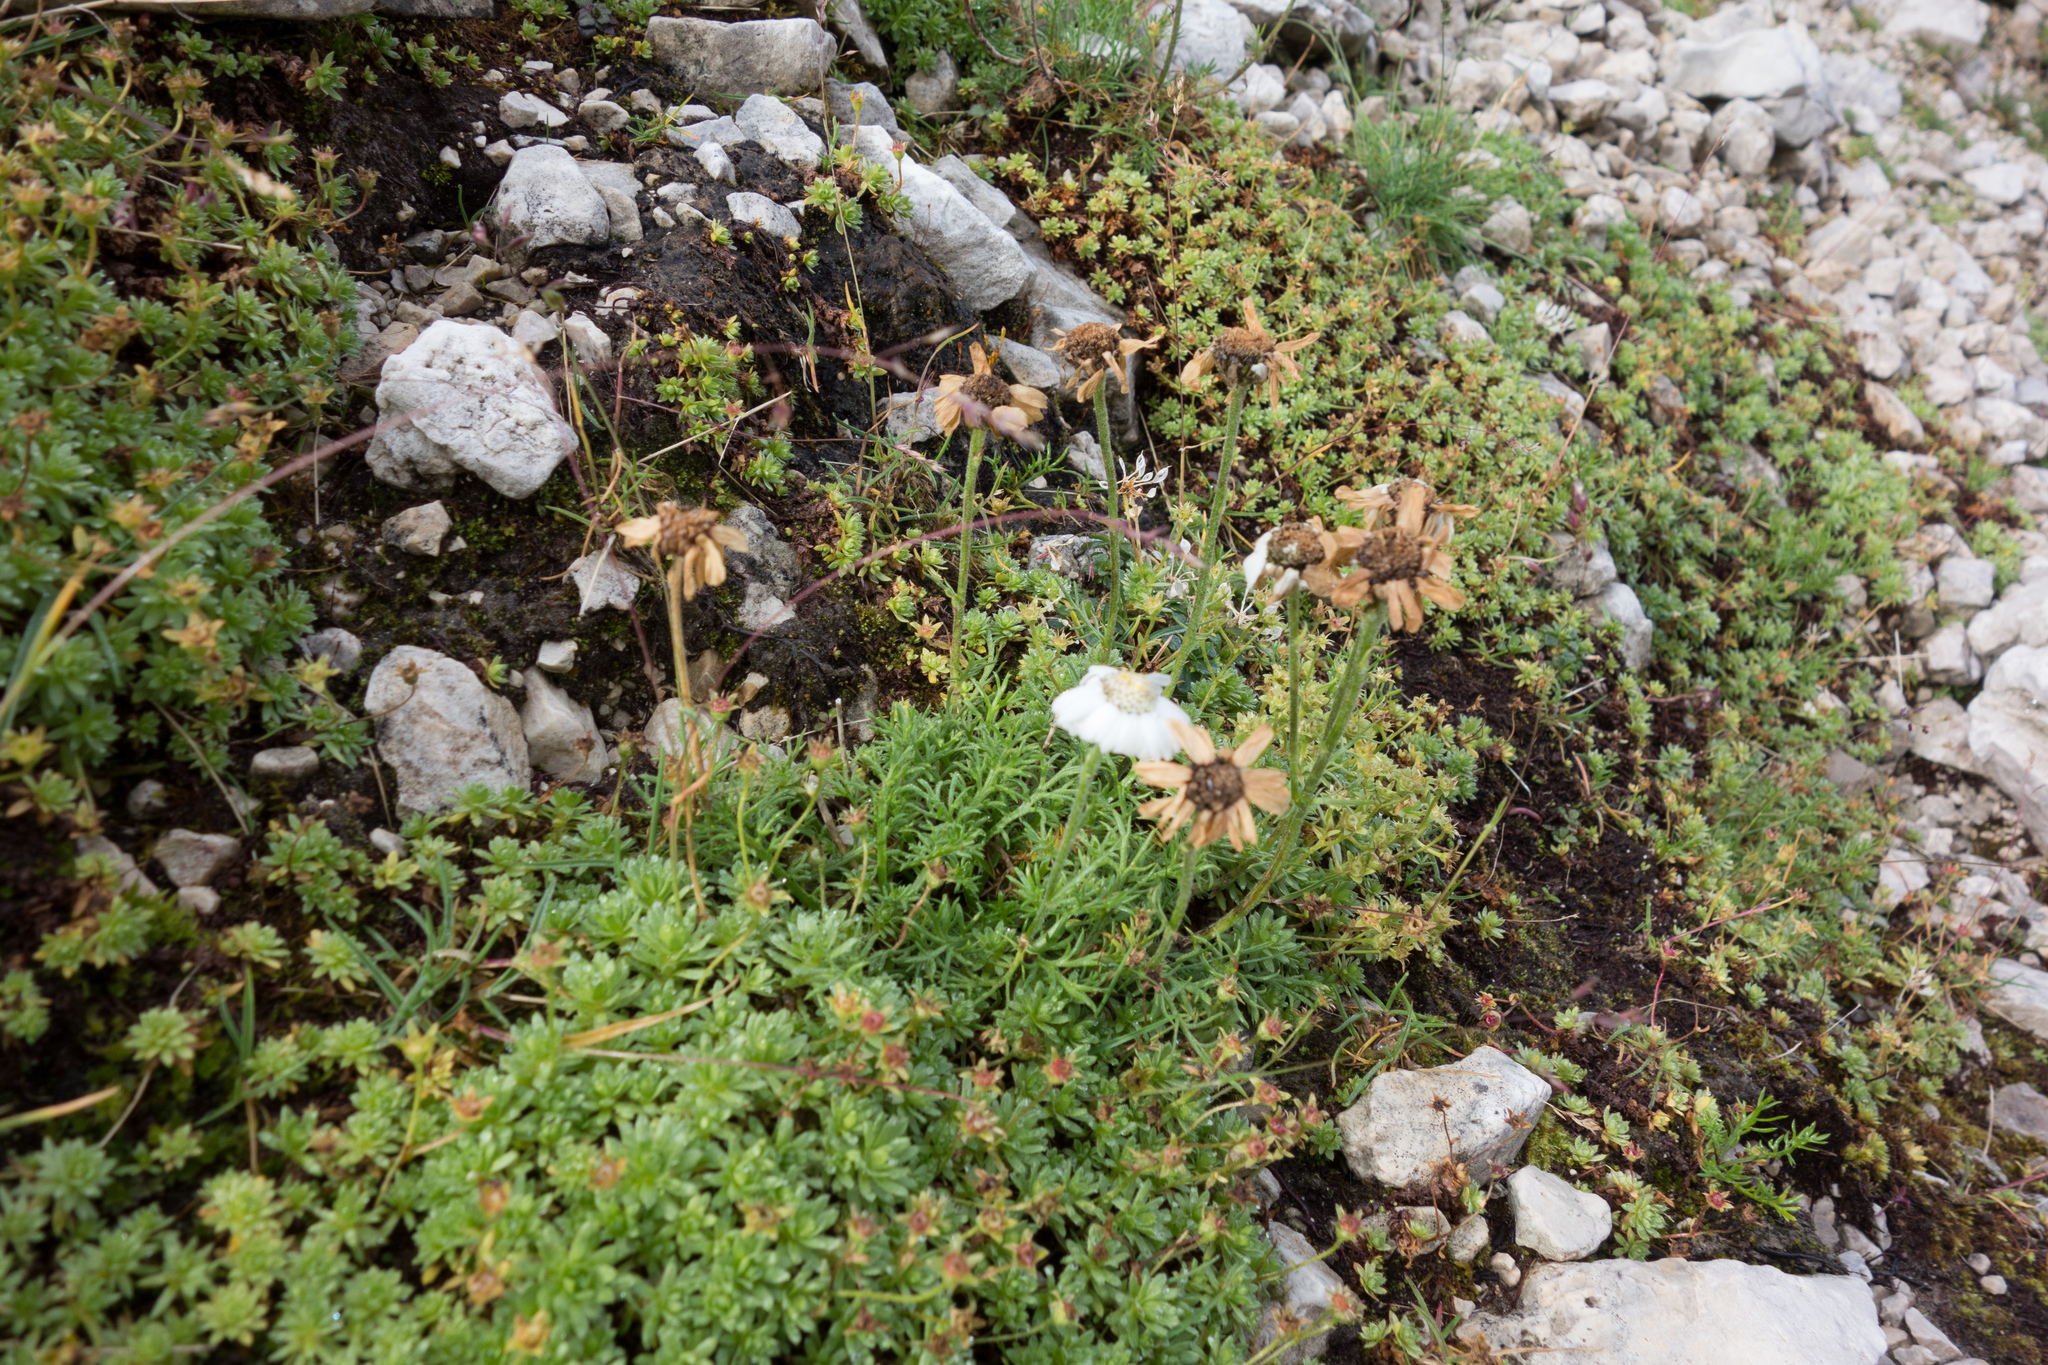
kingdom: Plantae
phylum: Tracheophyta
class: Magnoliopsida
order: Asterales
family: Asteraceae
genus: Achillea
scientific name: Achillea oxyloba
